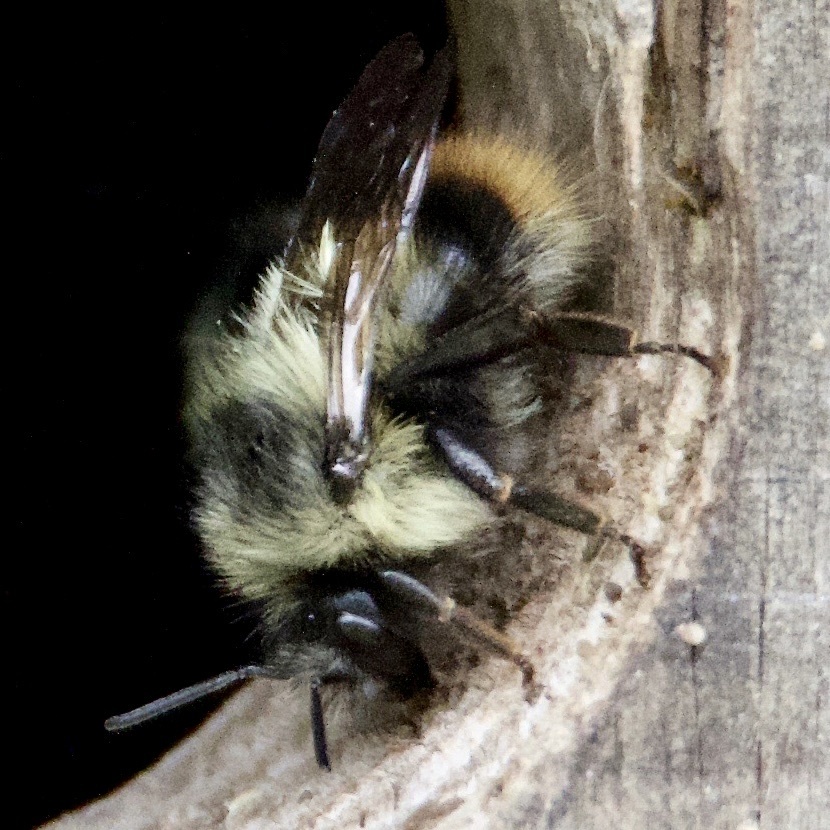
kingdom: Animalia
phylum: Arthropoda
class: Insecta
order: Hymenoptera
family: Apidae
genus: Bombus
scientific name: Bombus mixtus
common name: Fuzzy-horned bumble bee
